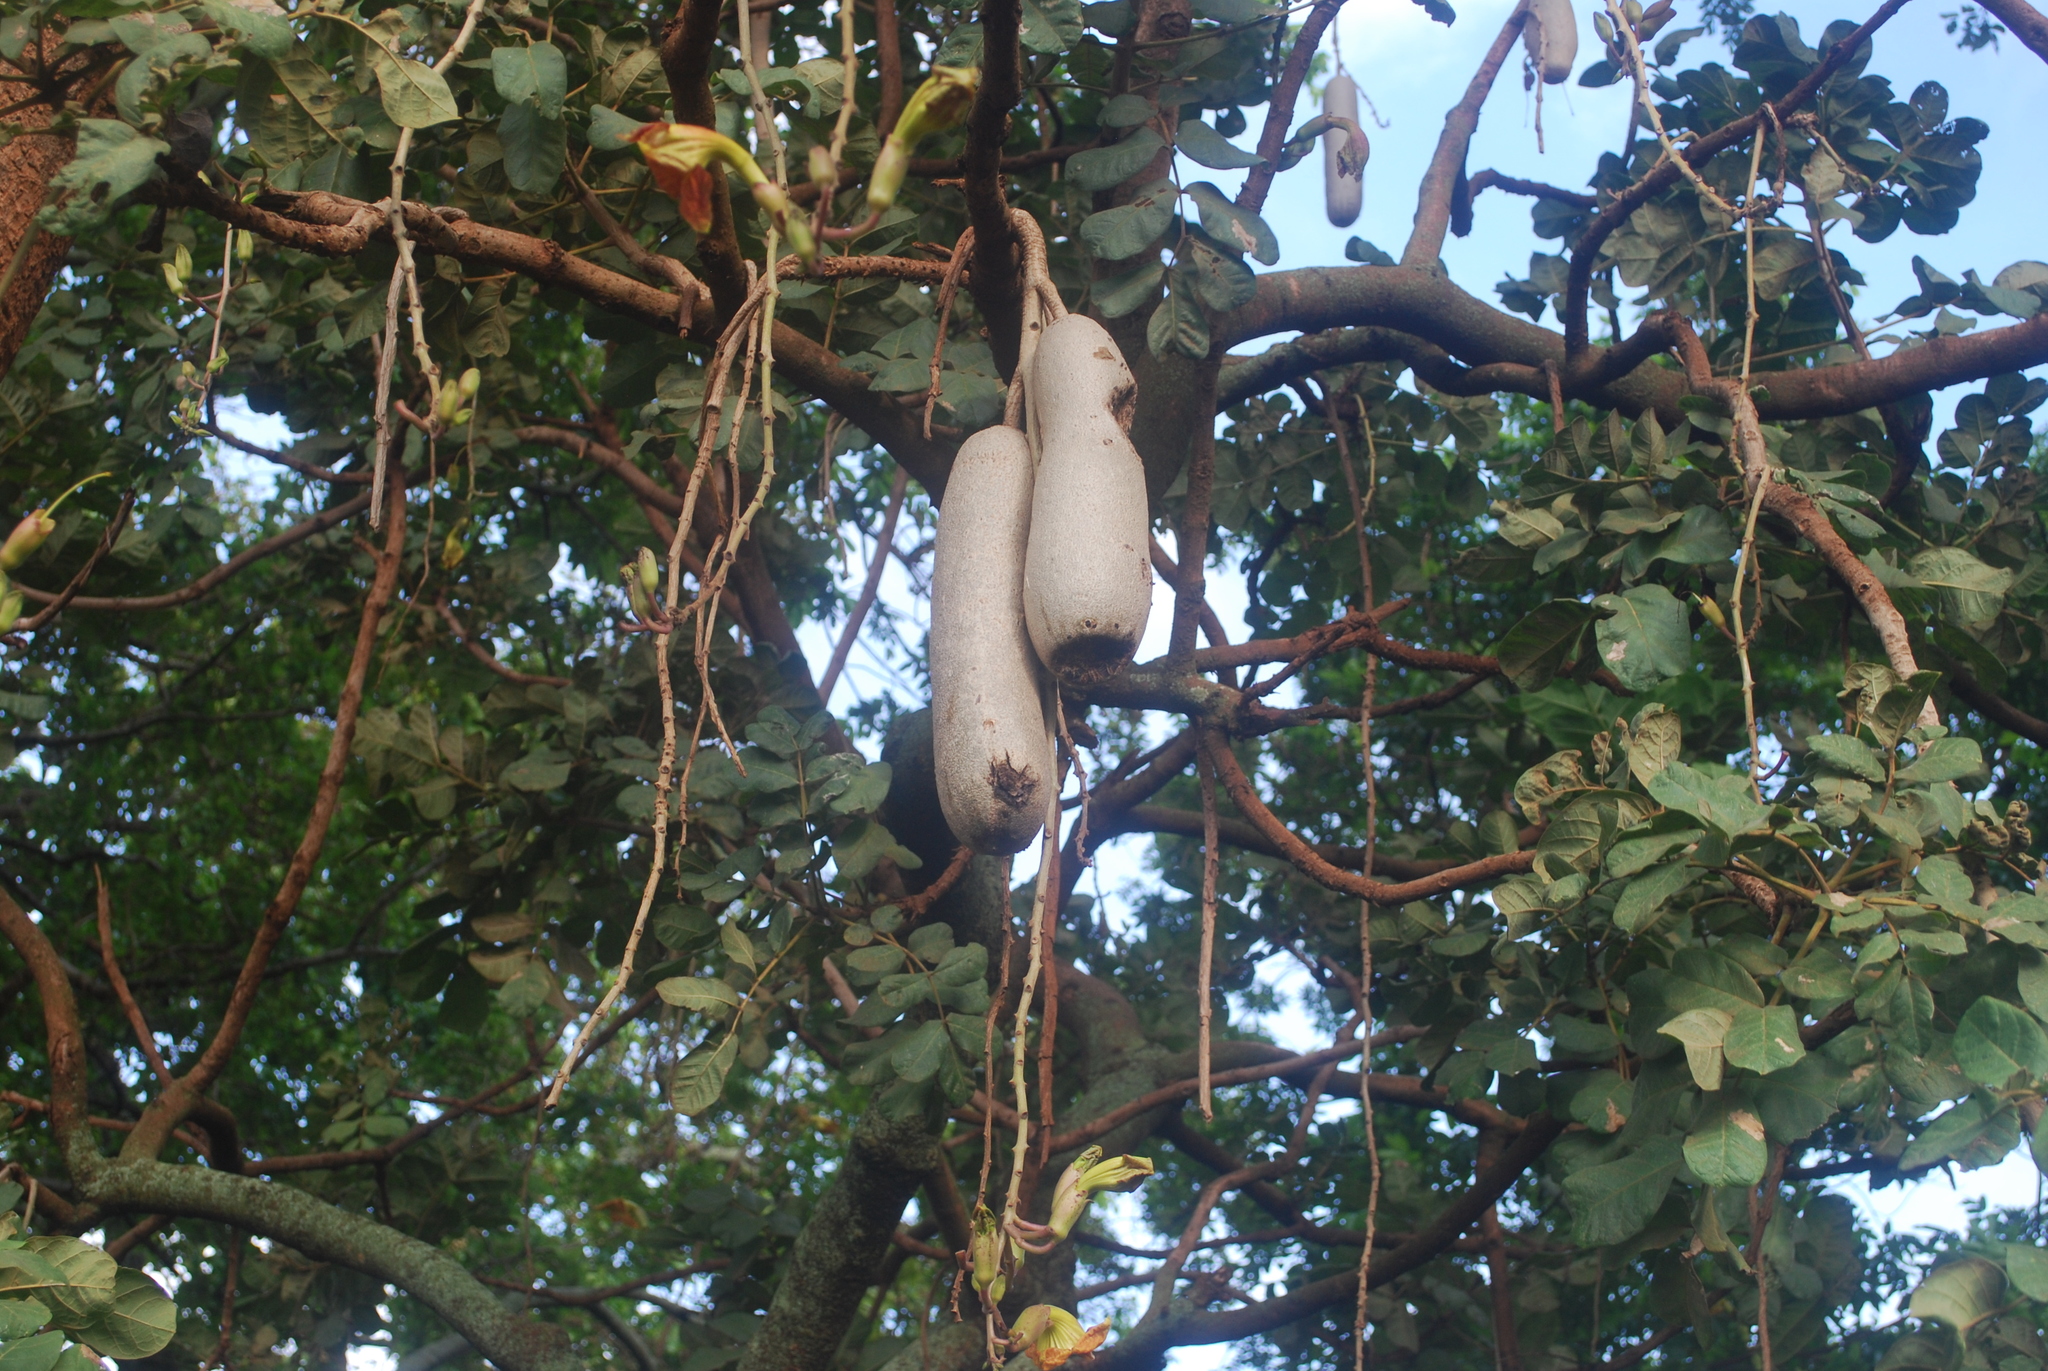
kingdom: Plantae
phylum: Tracheophyta
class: Magnoliopsida
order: Lamiales
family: Bignoniaceae
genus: Kigelia
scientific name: Kigelia africana
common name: Sausage tree
